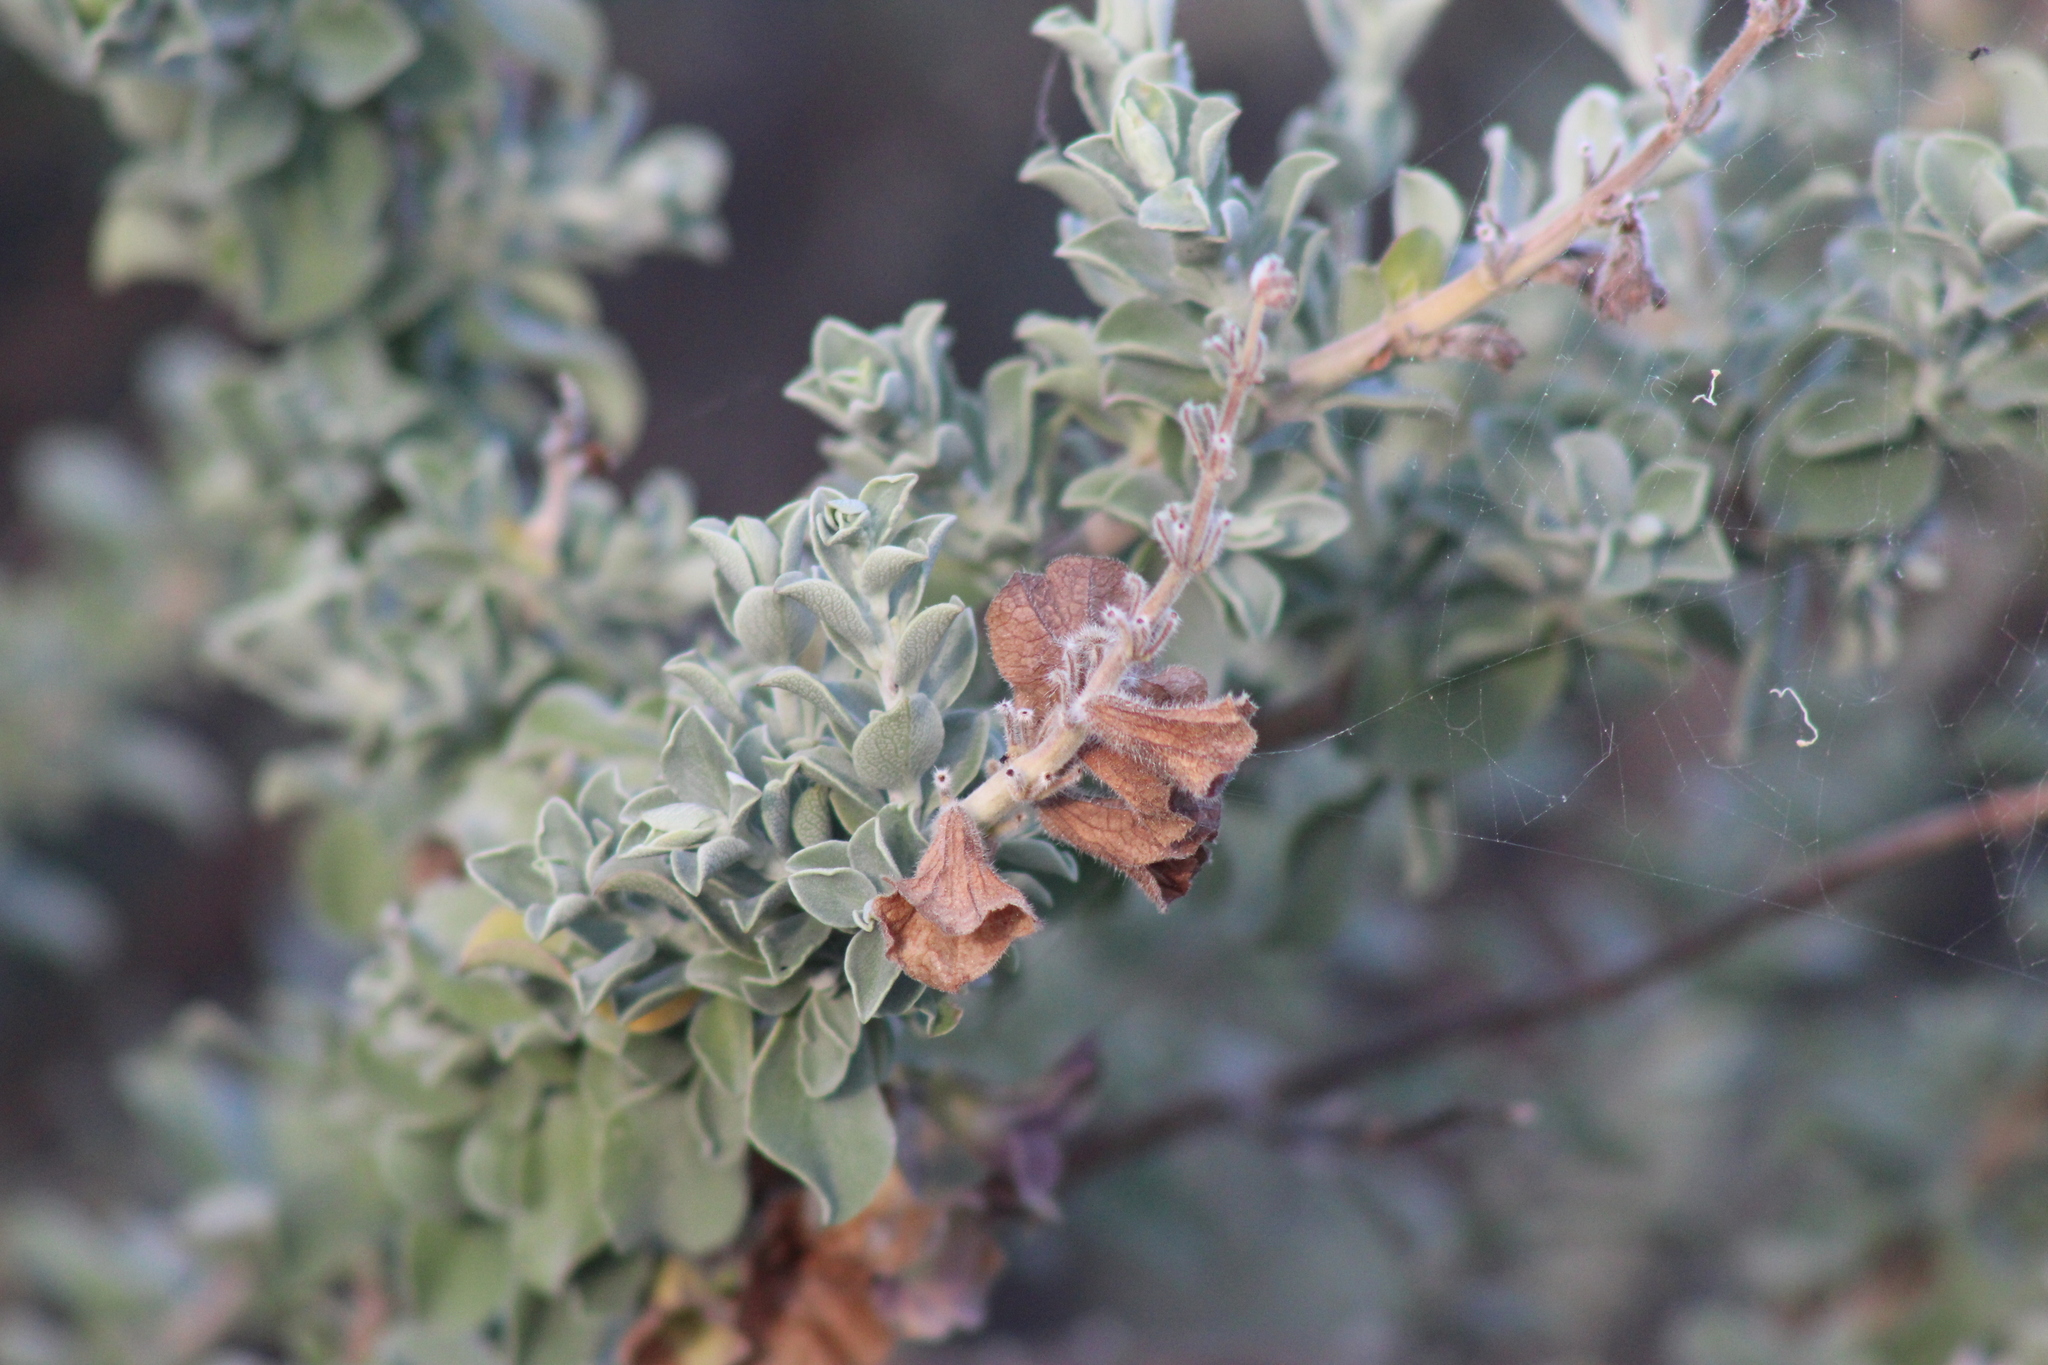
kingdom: Plantae
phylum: Tracheophyta
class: Magnoliopsida
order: Lamiales
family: Lamiaceae
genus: Salvia
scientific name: Salvia aurea
